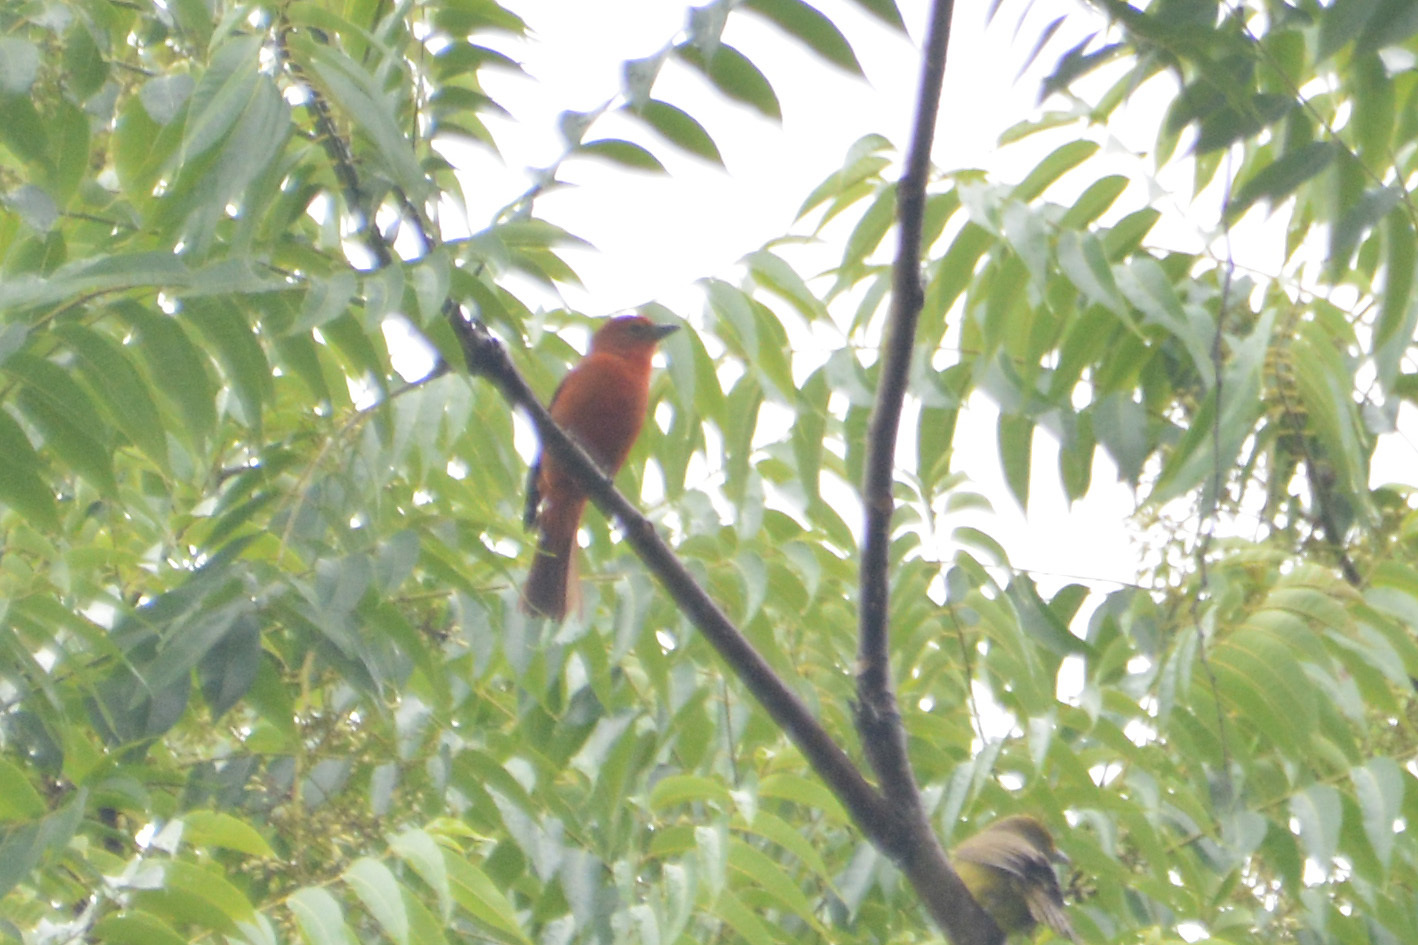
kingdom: Animalia
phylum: Chordata
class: Aves
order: Passeriformes
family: Cardinalidae
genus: Piranga
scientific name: Piranga flava
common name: Red tanager
